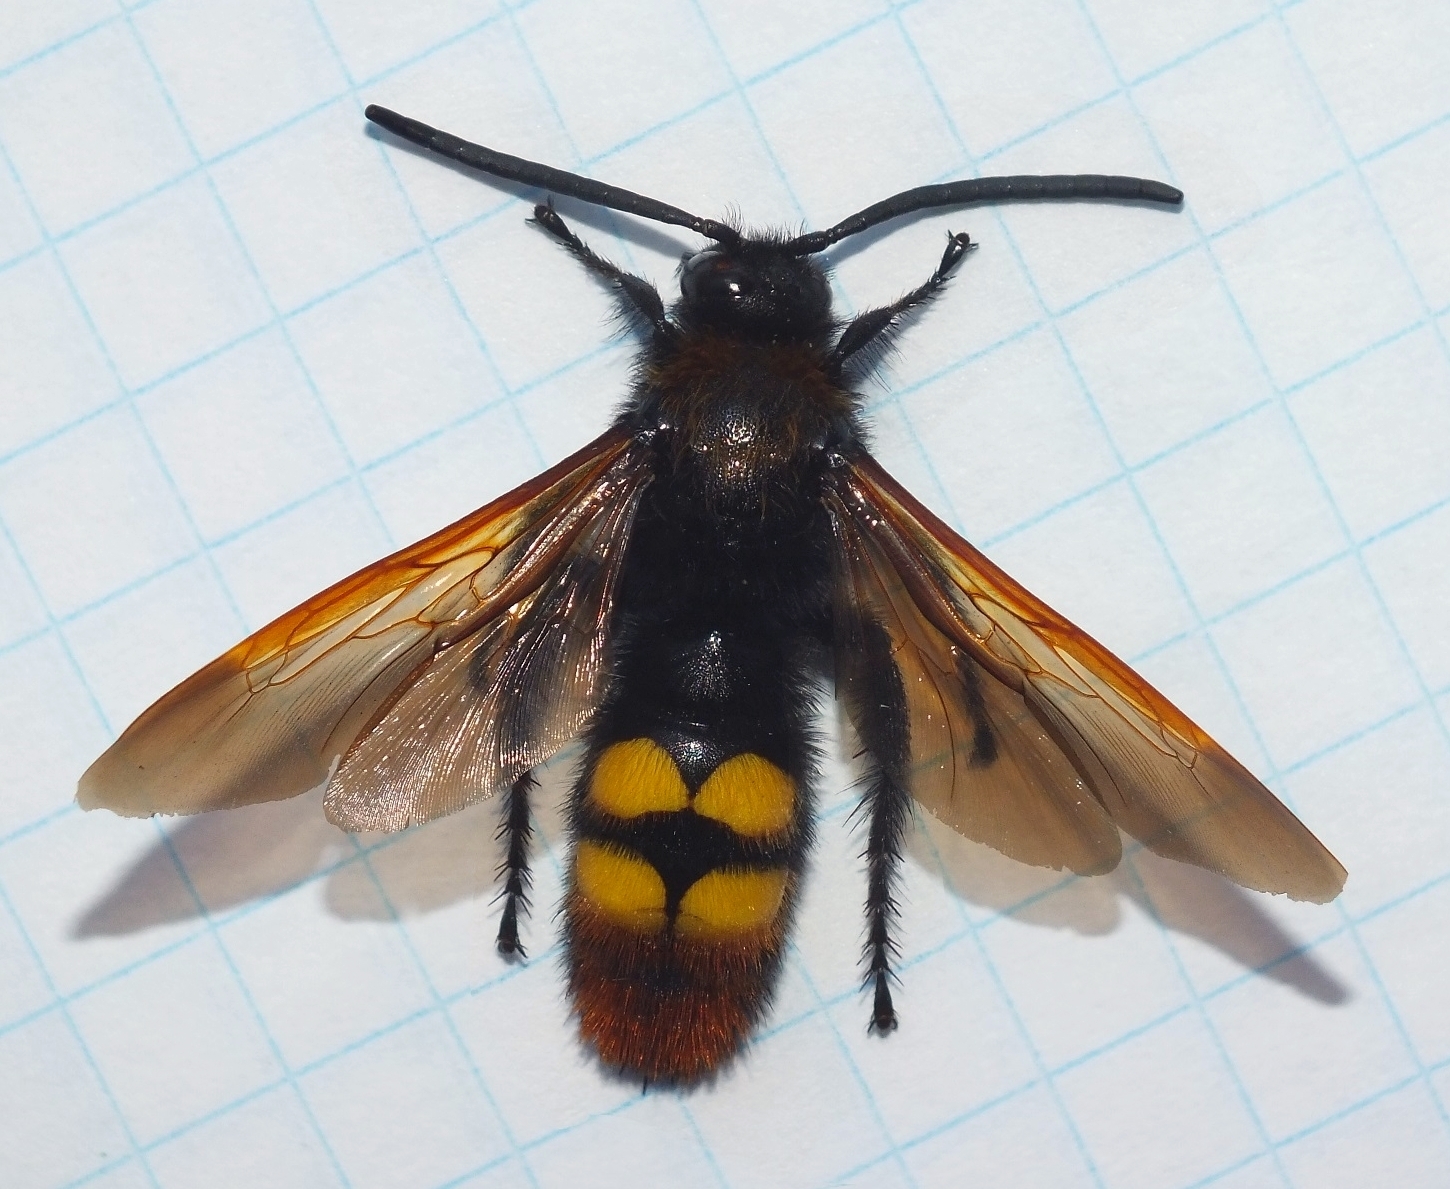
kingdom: Animalia
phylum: Arthropoda
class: Insecta
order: Hymenoptera
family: Scoliidae
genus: Megascolia
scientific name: Megascolia maculata
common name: Mammoth wasp
